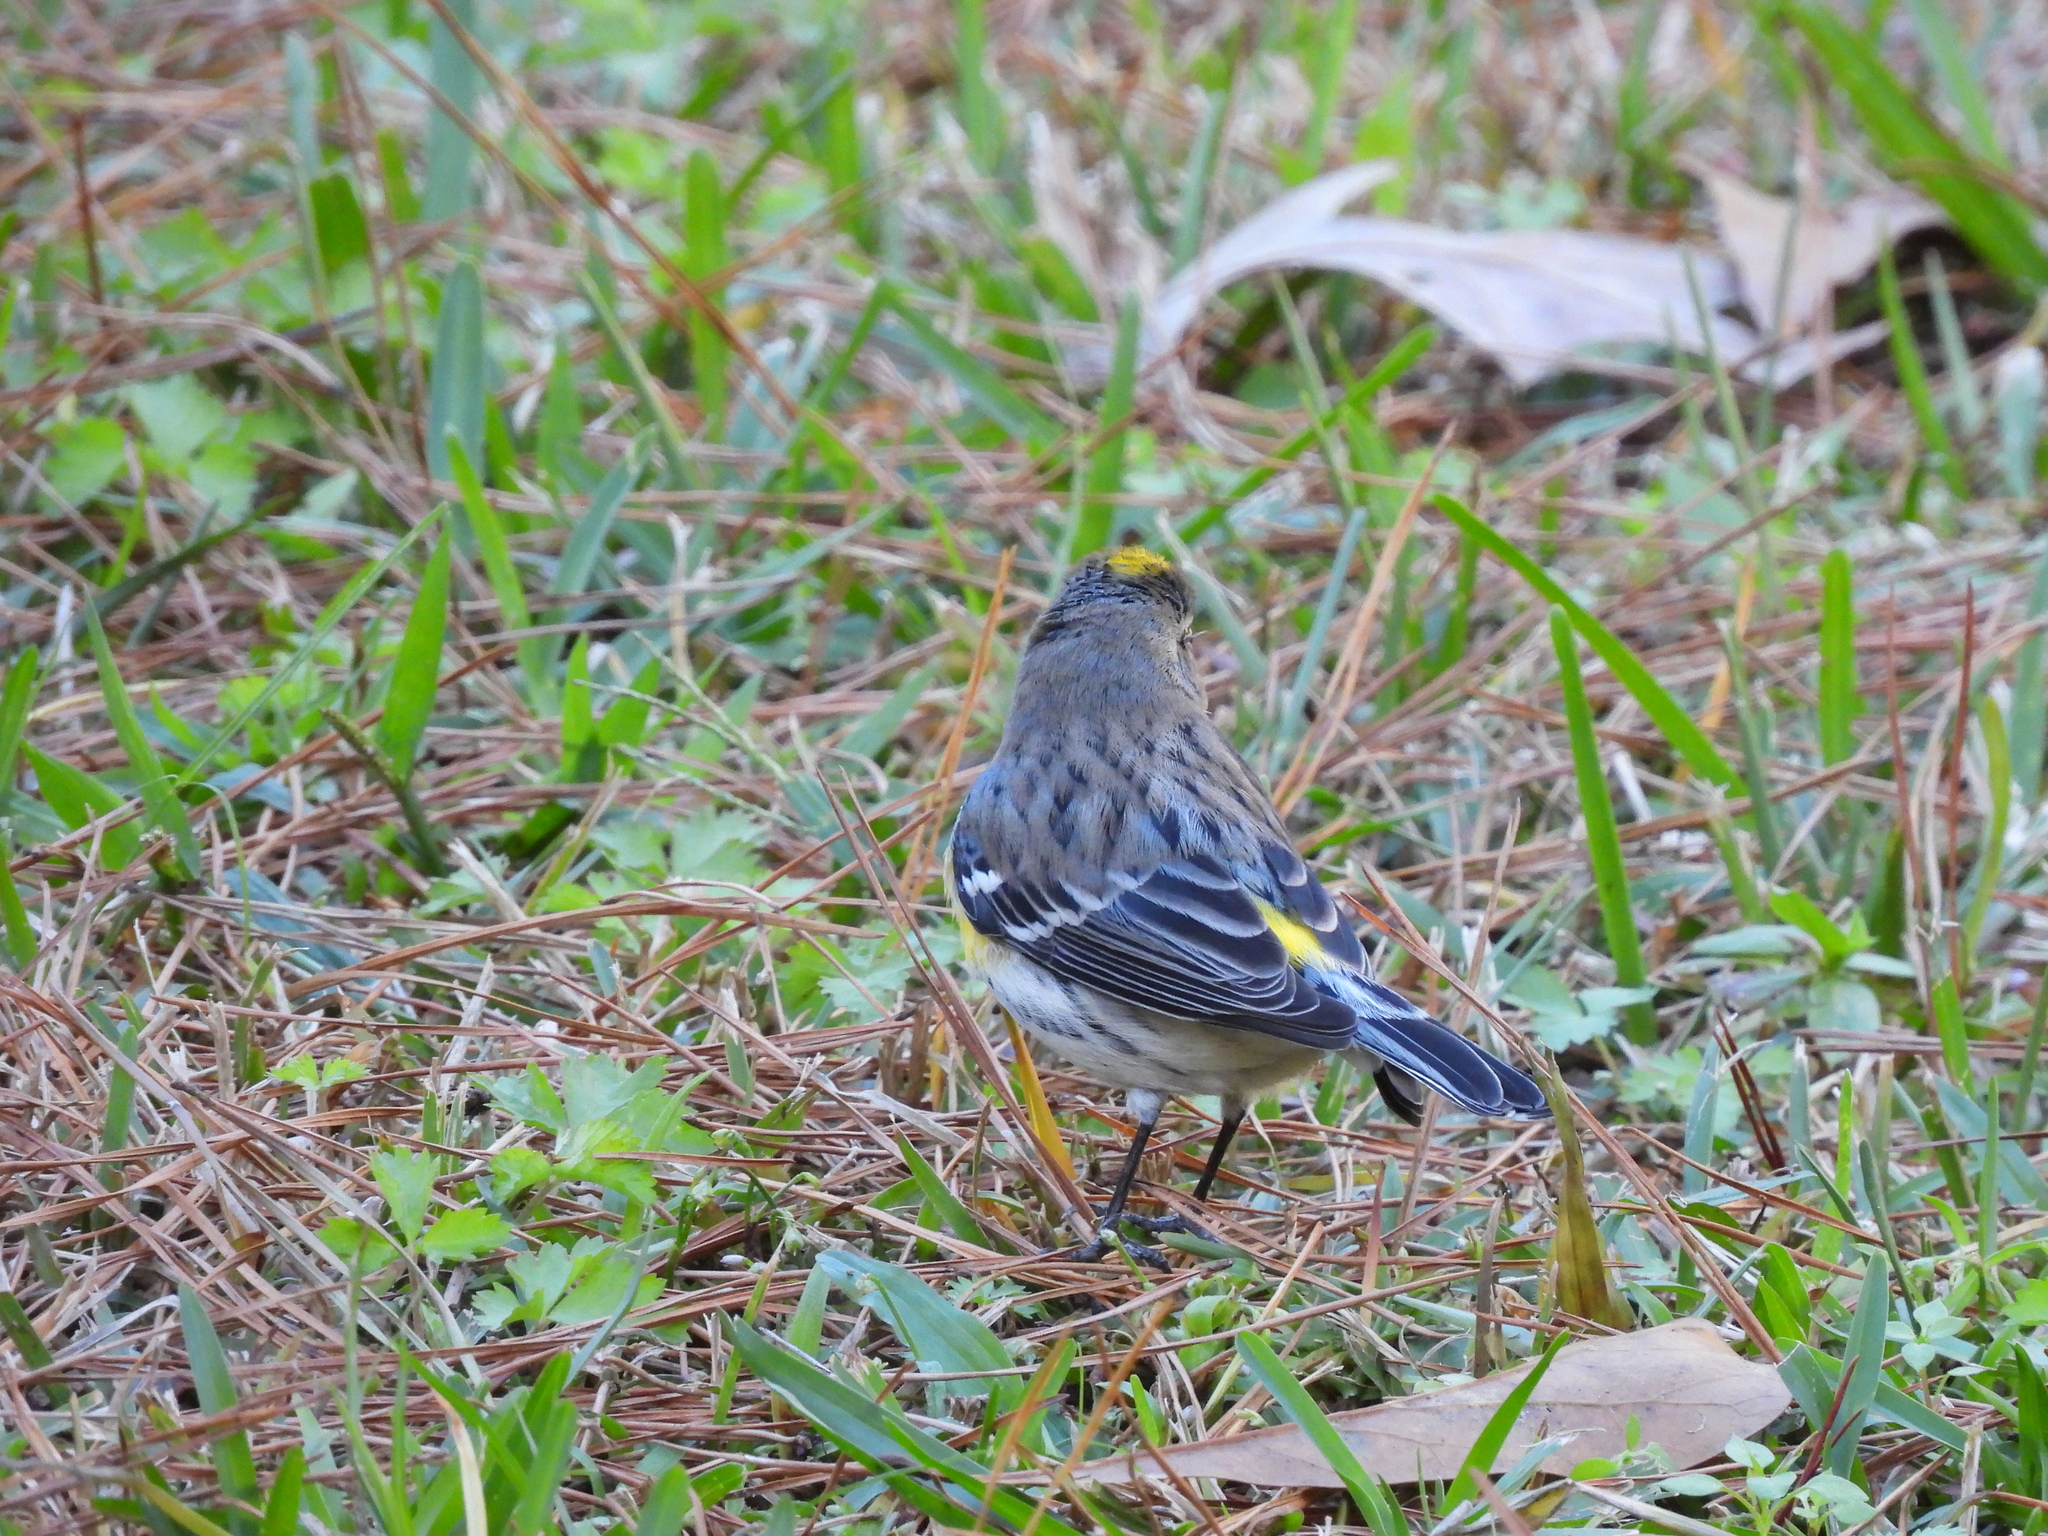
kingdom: Animalia
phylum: Chordata
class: Aves
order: Passeriformes
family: Parulidae
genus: Setophaga
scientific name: Setophaga coronata
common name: Myrtle warbler
